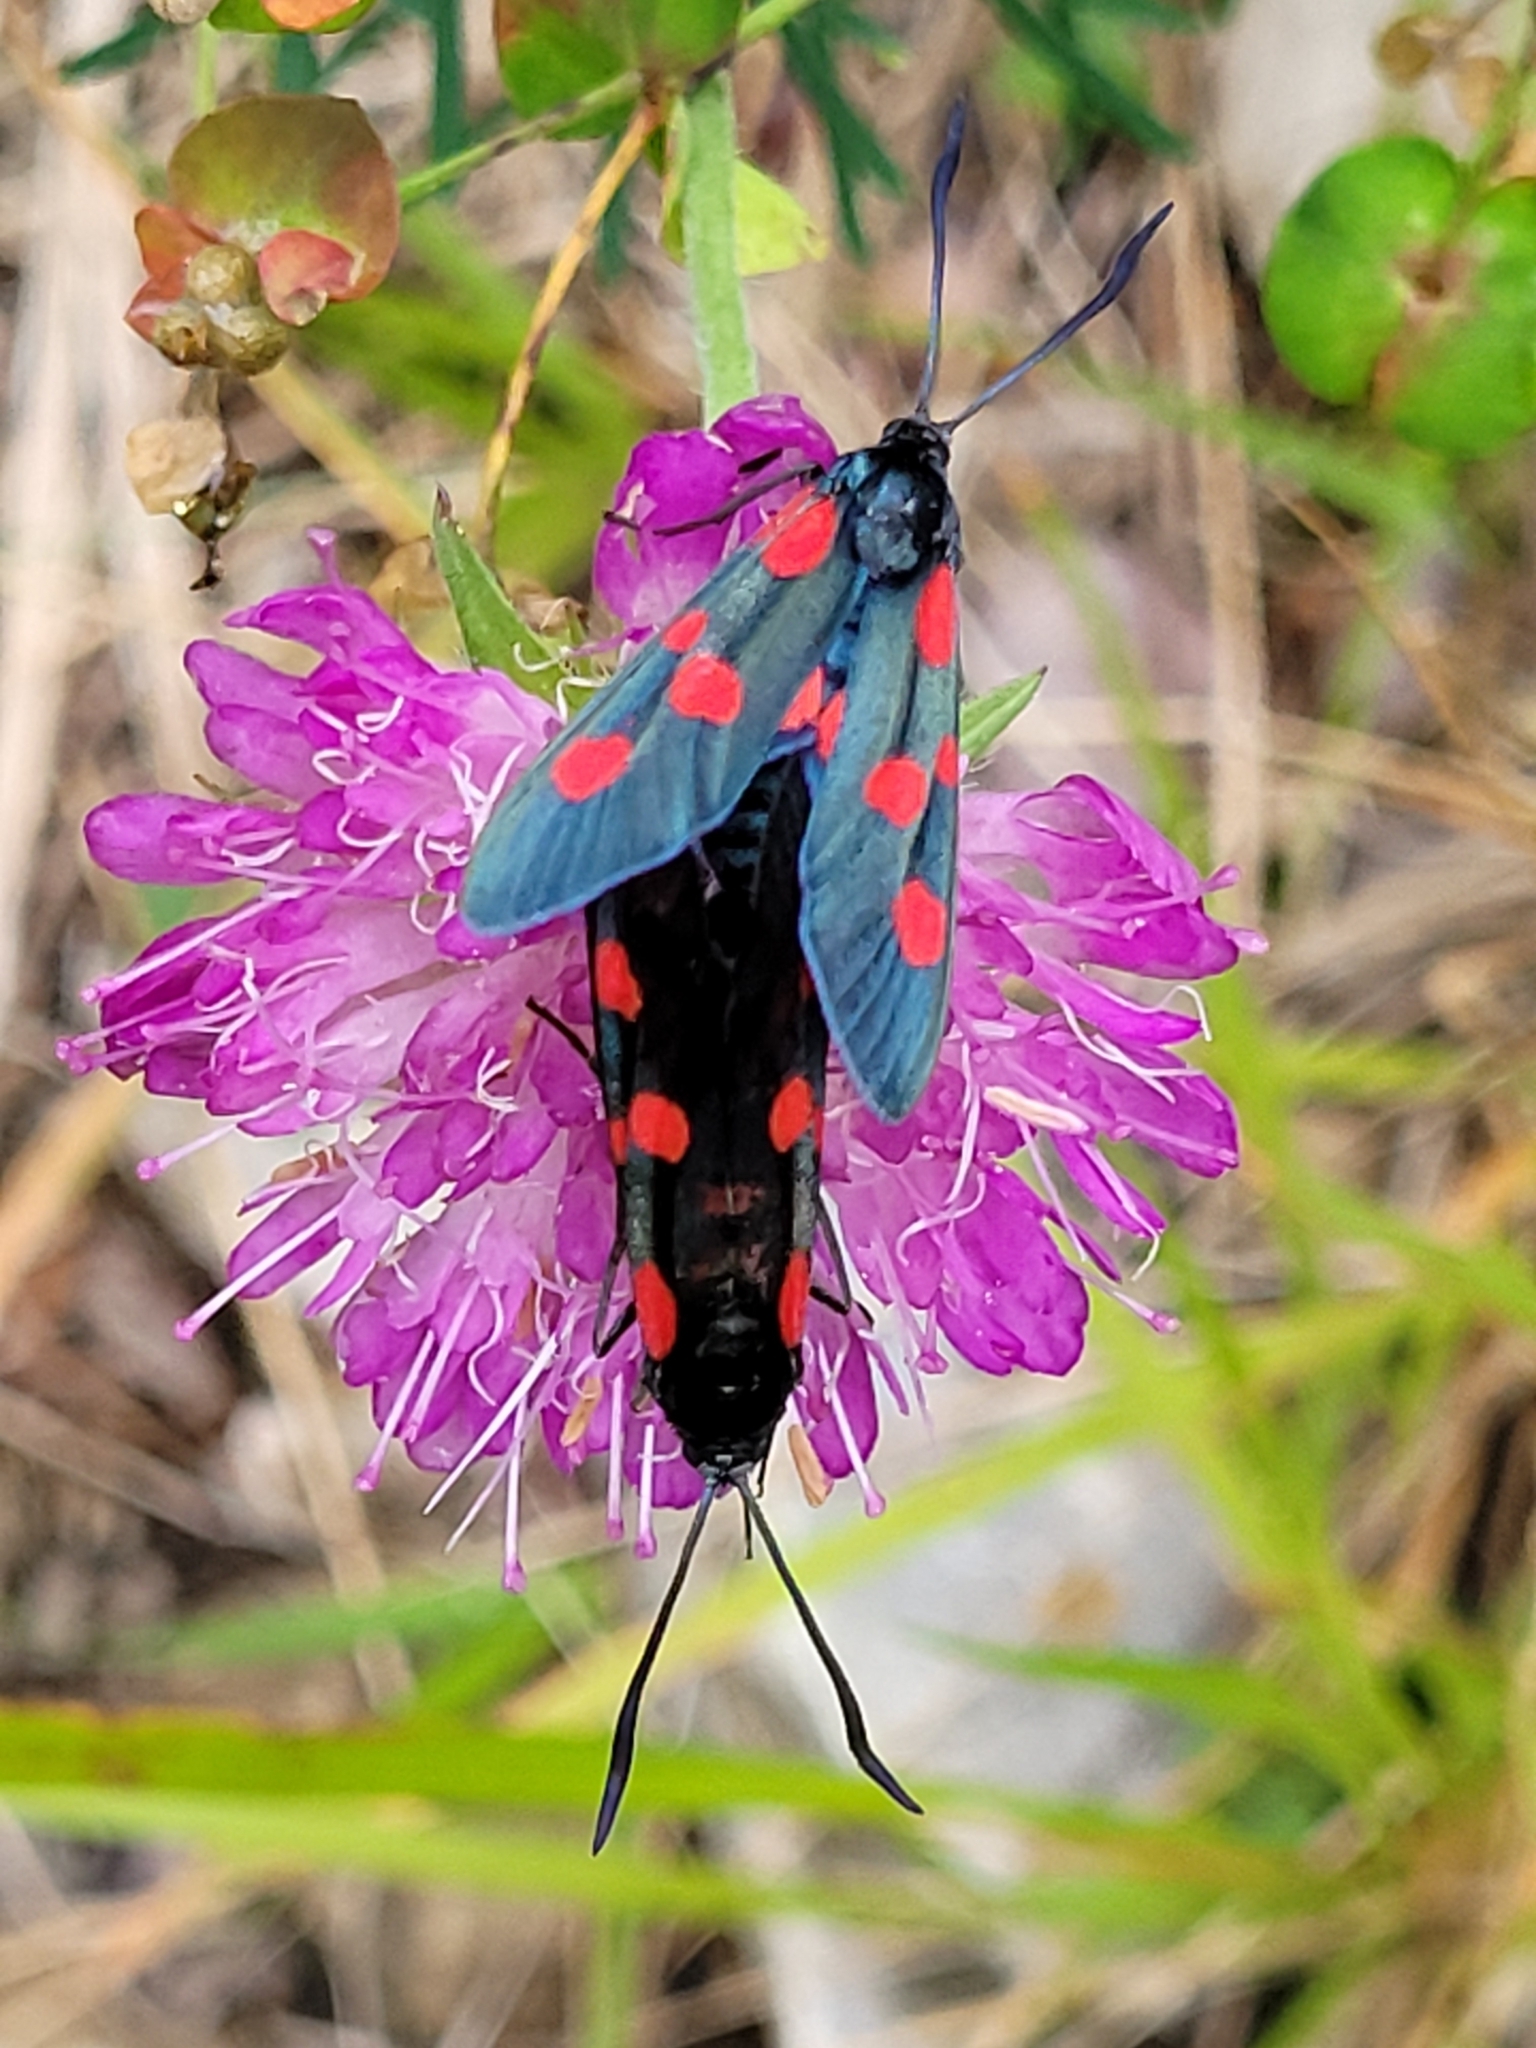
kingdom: Animalia
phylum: Arthropoda
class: Insecta
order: Lepidoptera
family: Zygaenidae
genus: Zygaena
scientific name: Zygaena lonicerae
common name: Narrow-bordered five-spot burnet
